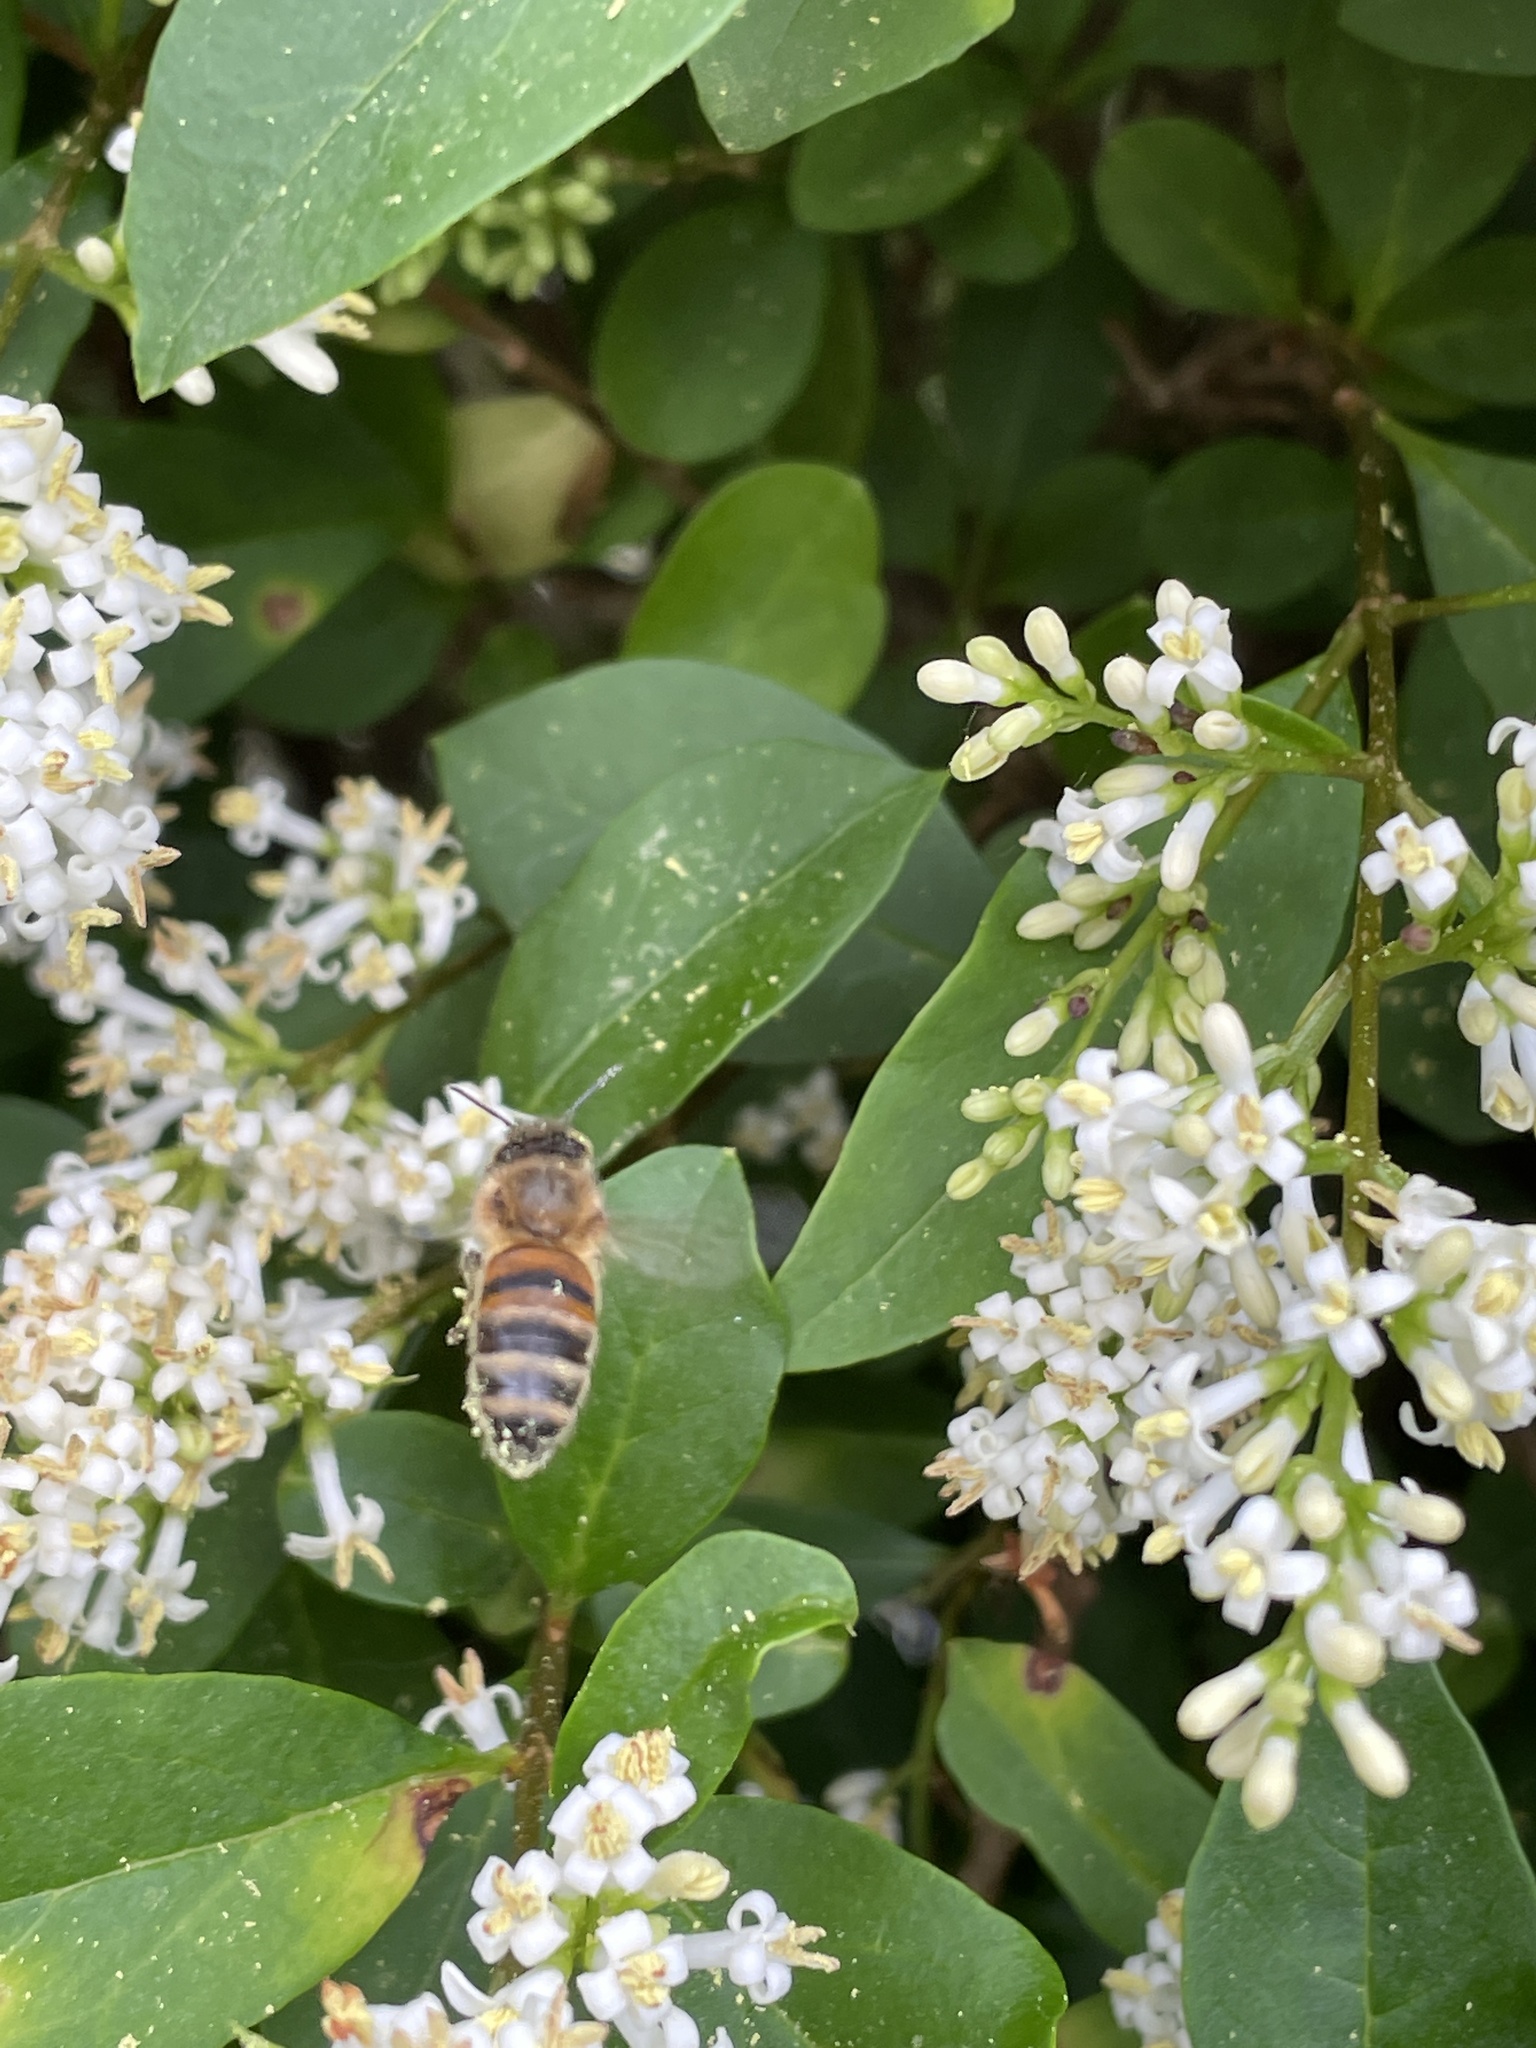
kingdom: Animalia
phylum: Arthropoda
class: Insecta
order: Hymenoptera
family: Apidae
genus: Apis
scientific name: Apis mellifera
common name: Honey bee
